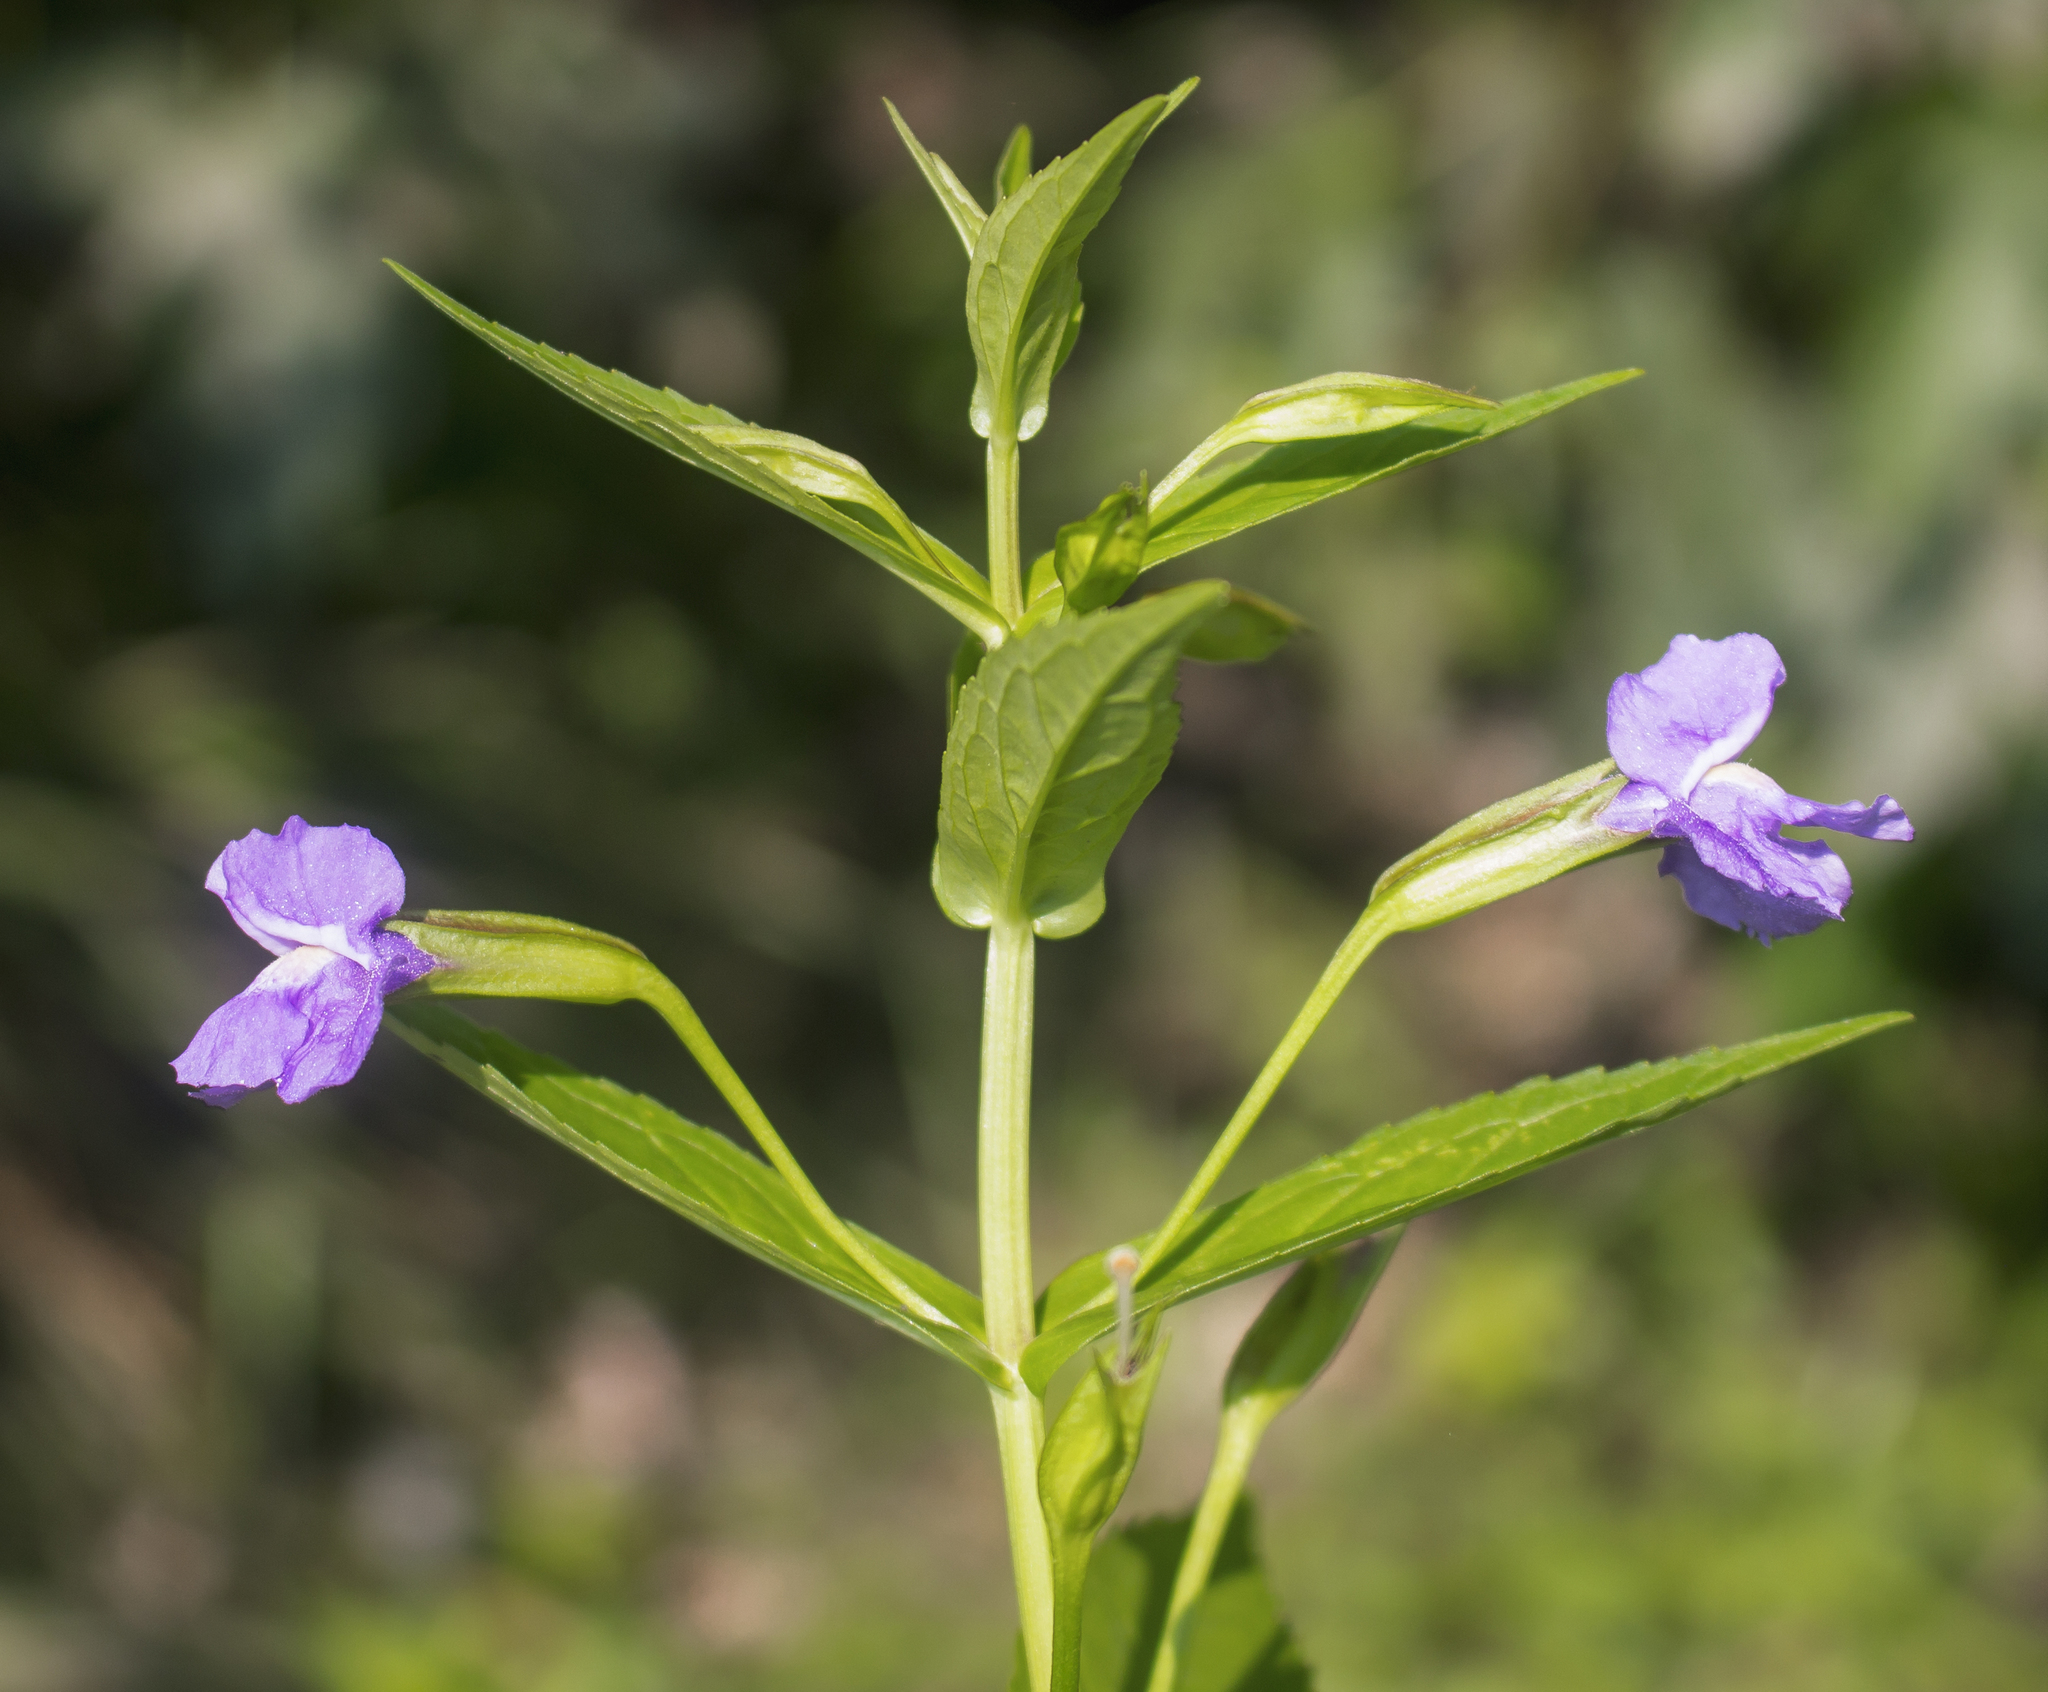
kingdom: Plantae
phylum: Tracheophyta
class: Magnoliopsida
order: Lamiales
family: Phrymaceae
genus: Mimulus
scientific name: Mimulus ringens
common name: Allegheny monkeyflower
